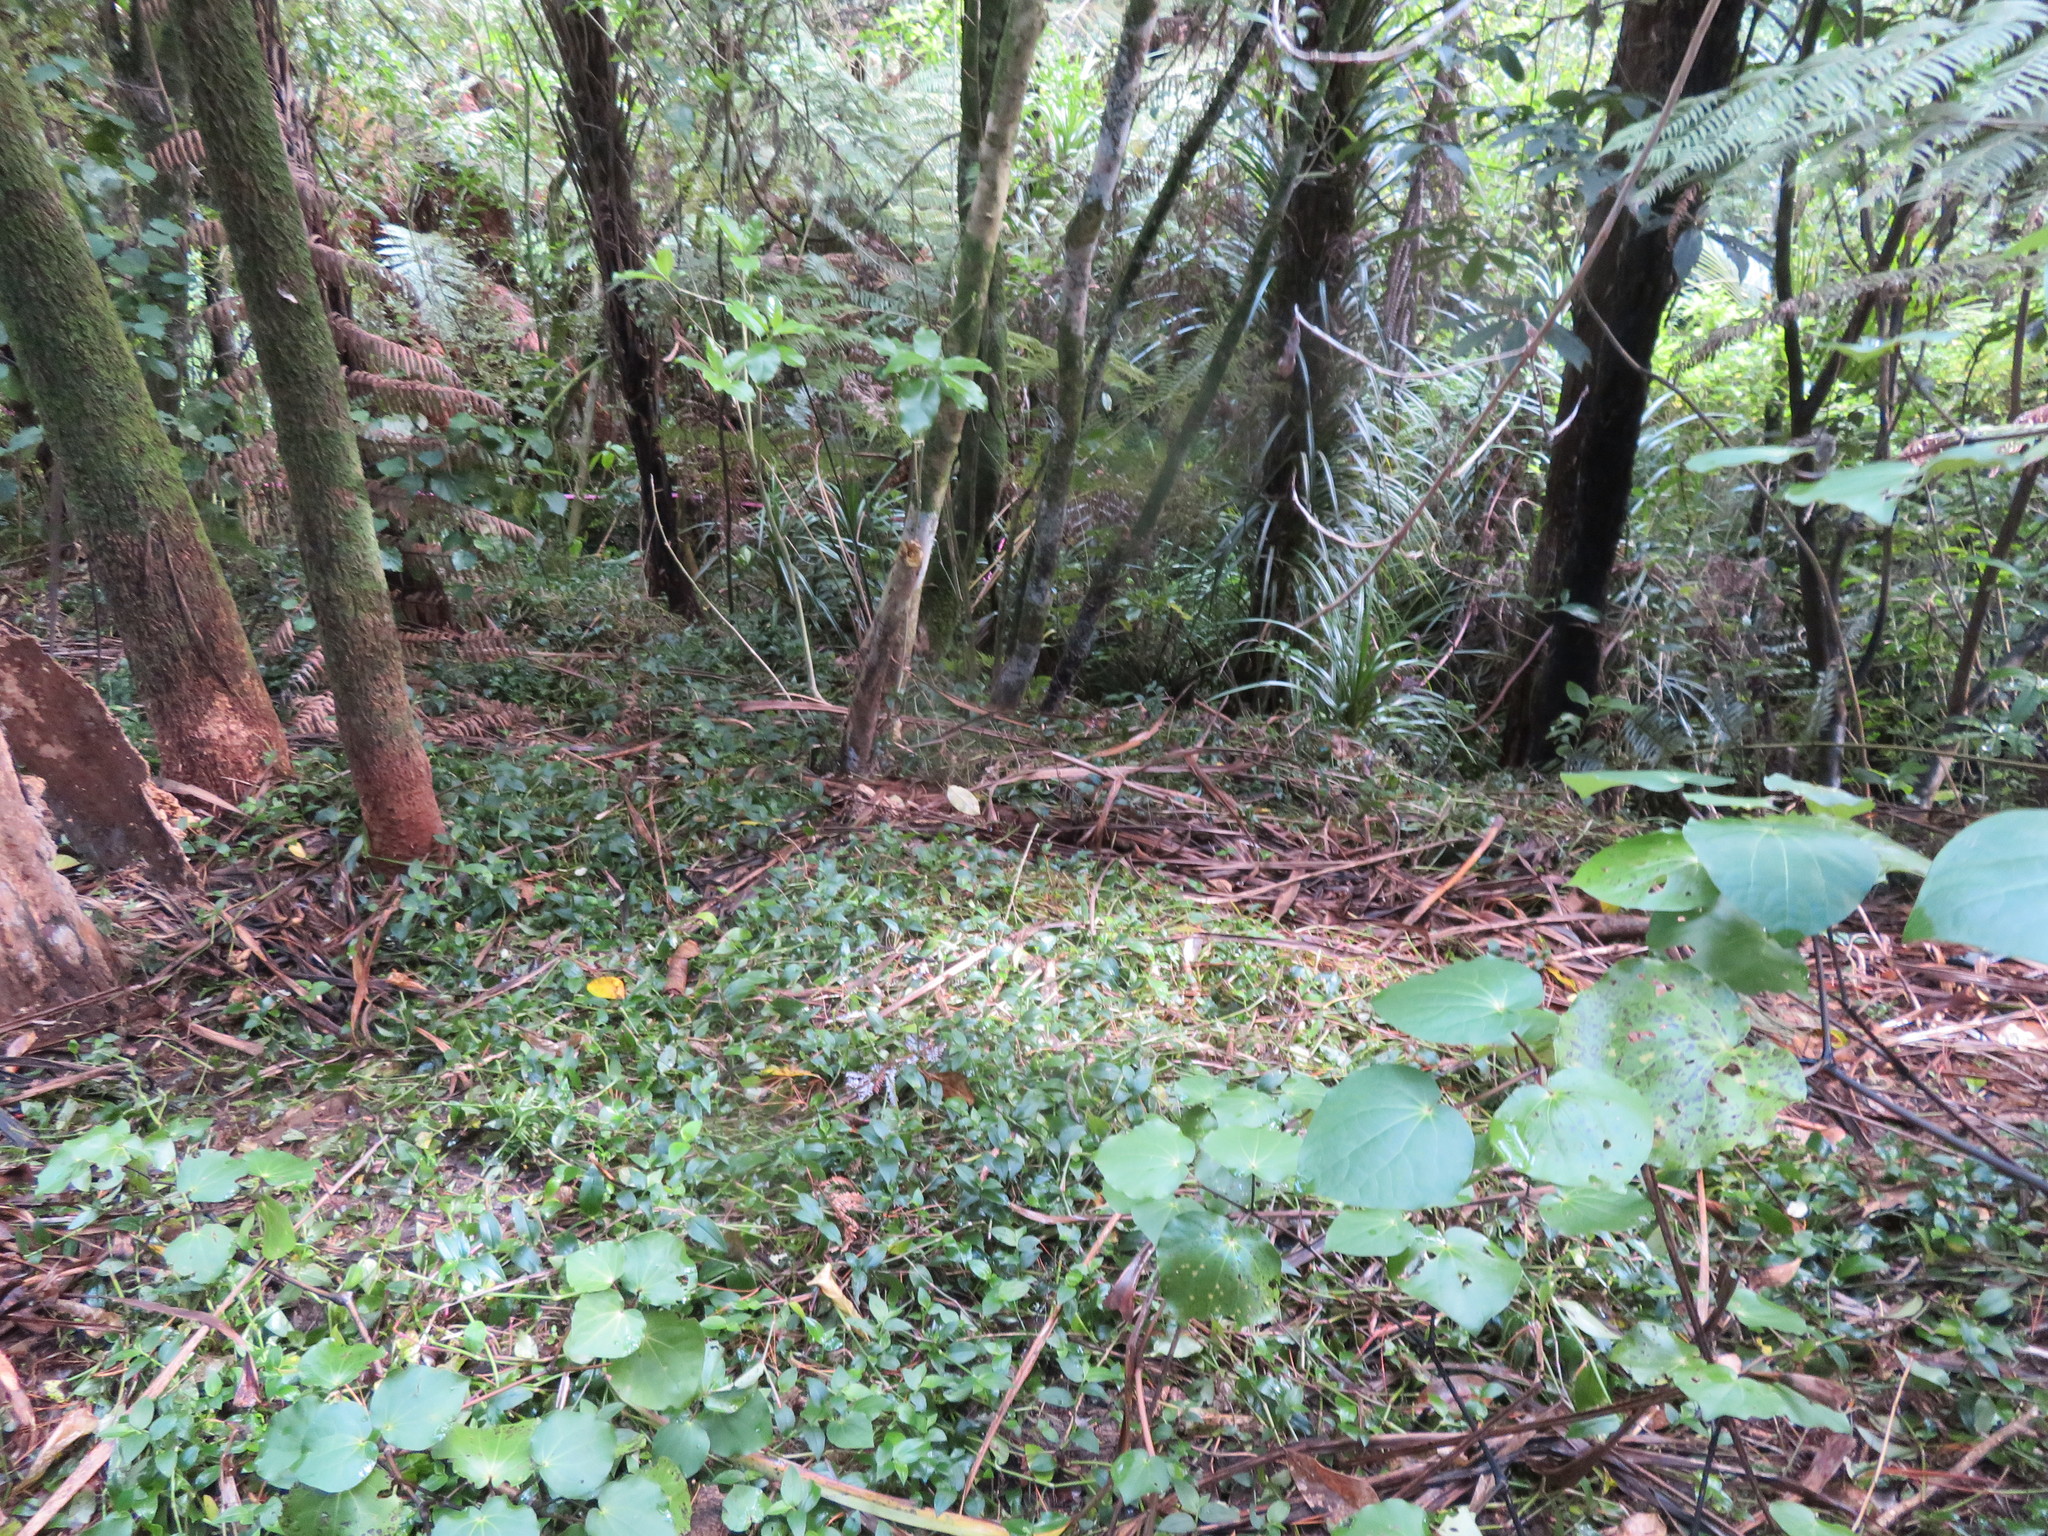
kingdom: Plantae
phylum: Tracheophyta
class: Liliopsida
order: Commelinales
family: Commelinaceae
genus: Tradescantia
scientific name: Tradescantia fluminensis
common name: Wandering-jew
